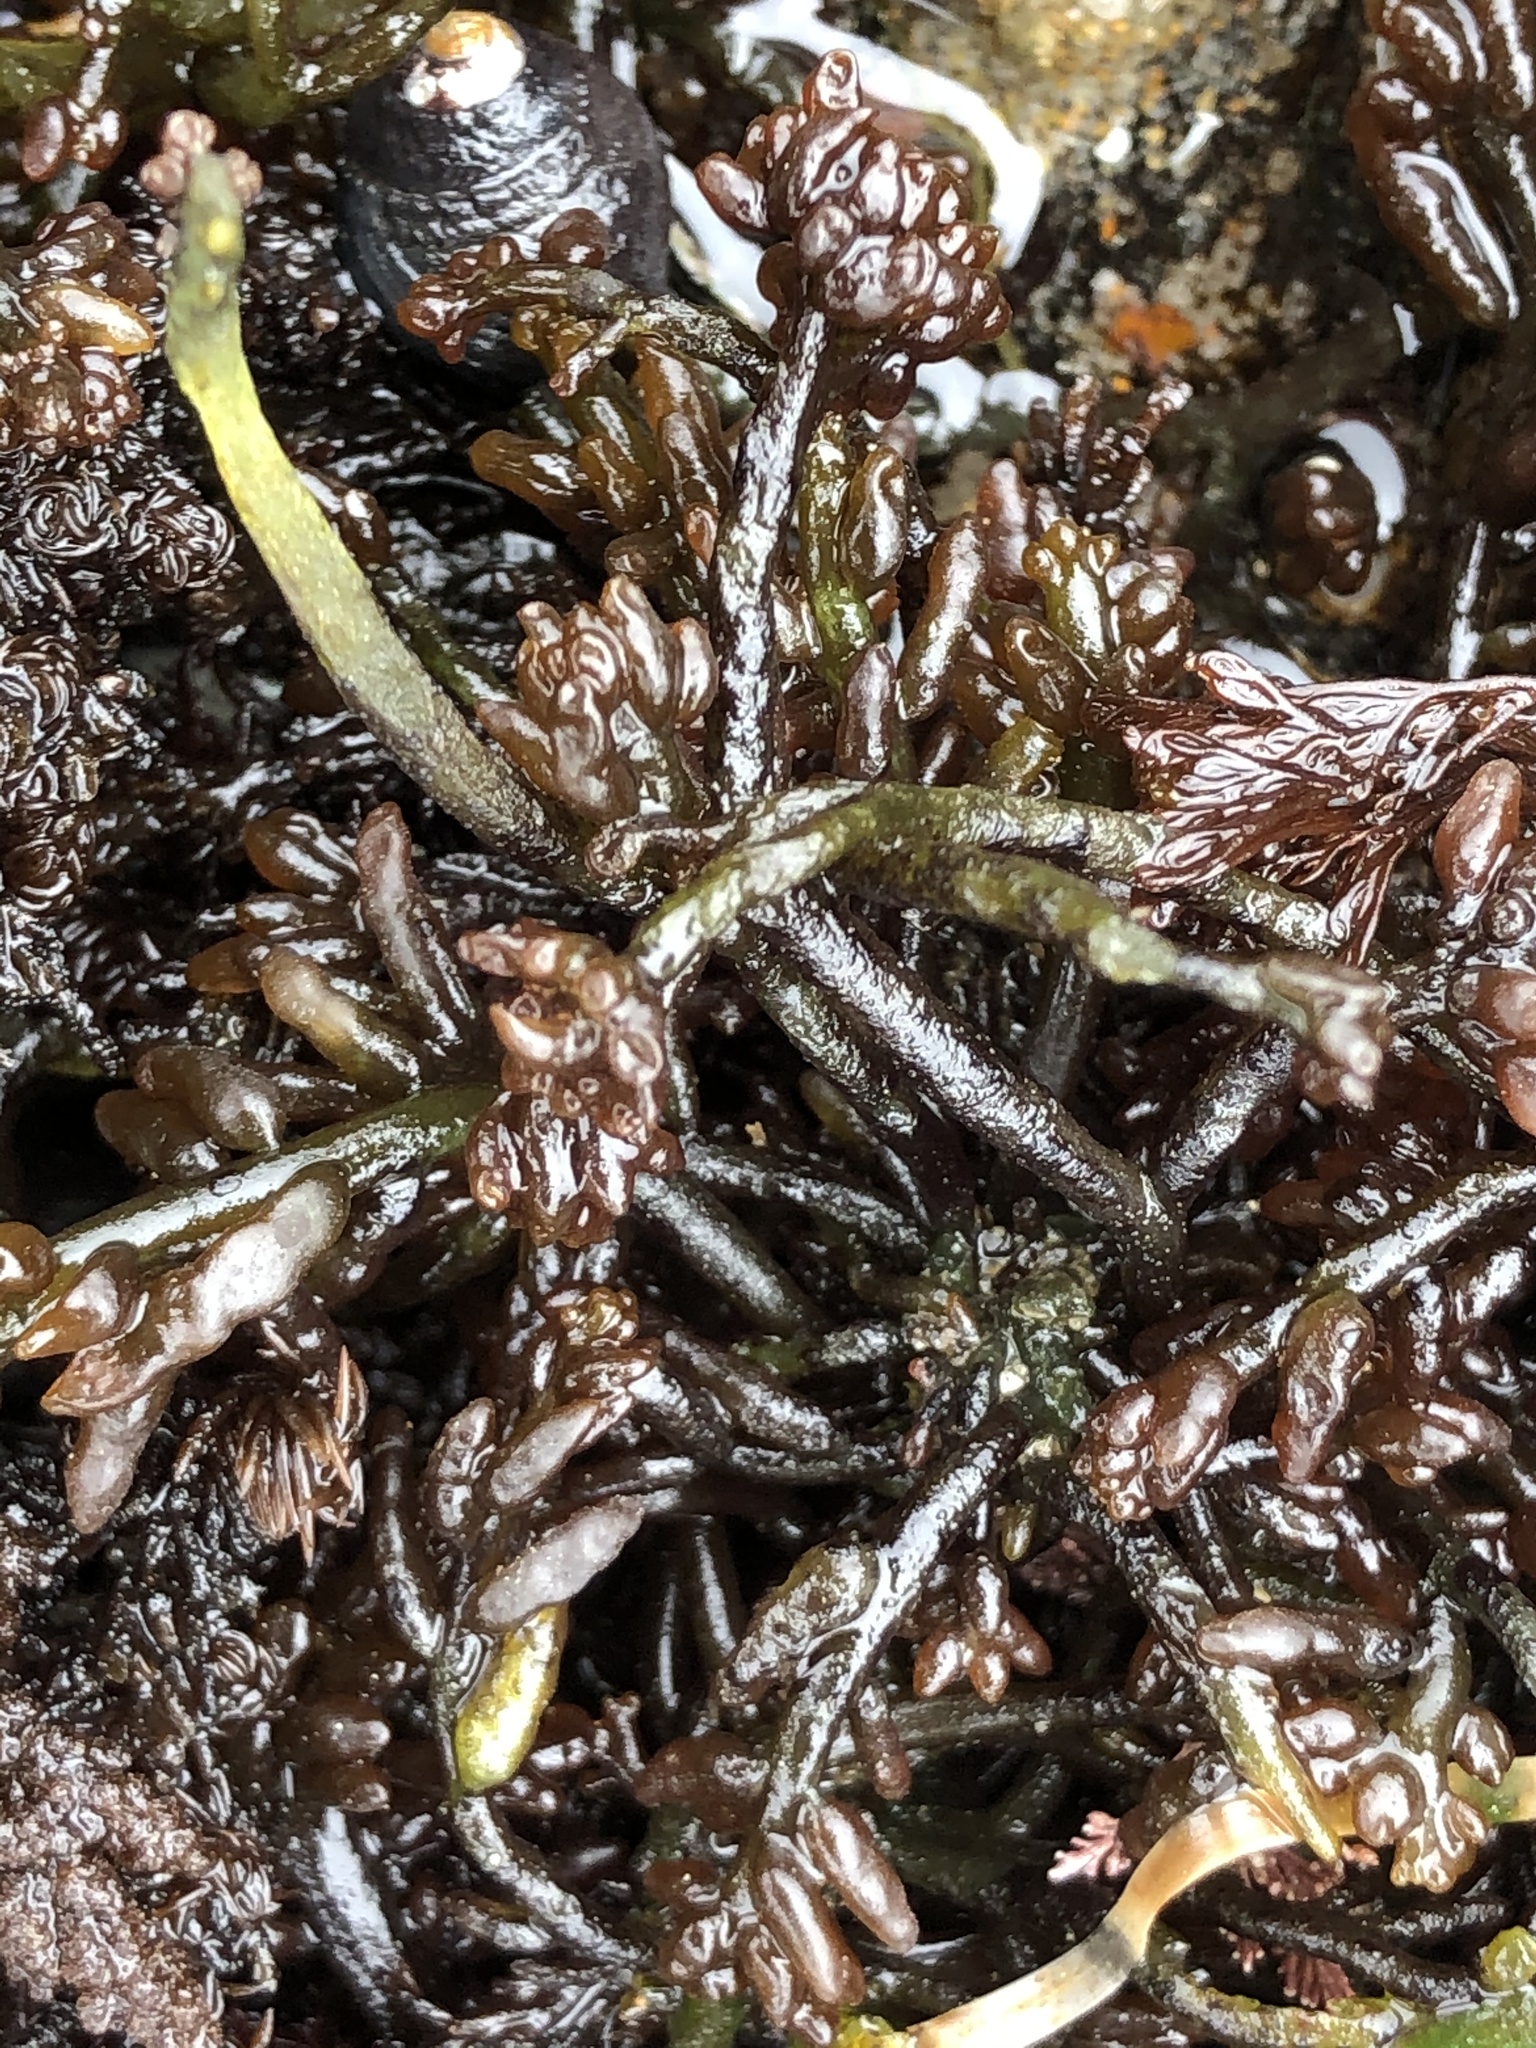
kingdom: Plantae
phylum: Rhodophyta
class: Florideophyceae
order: Rhodymeniales
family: Champiaceae
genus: Neogastroclonium
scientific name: Neogastroclonium subarticulatum
